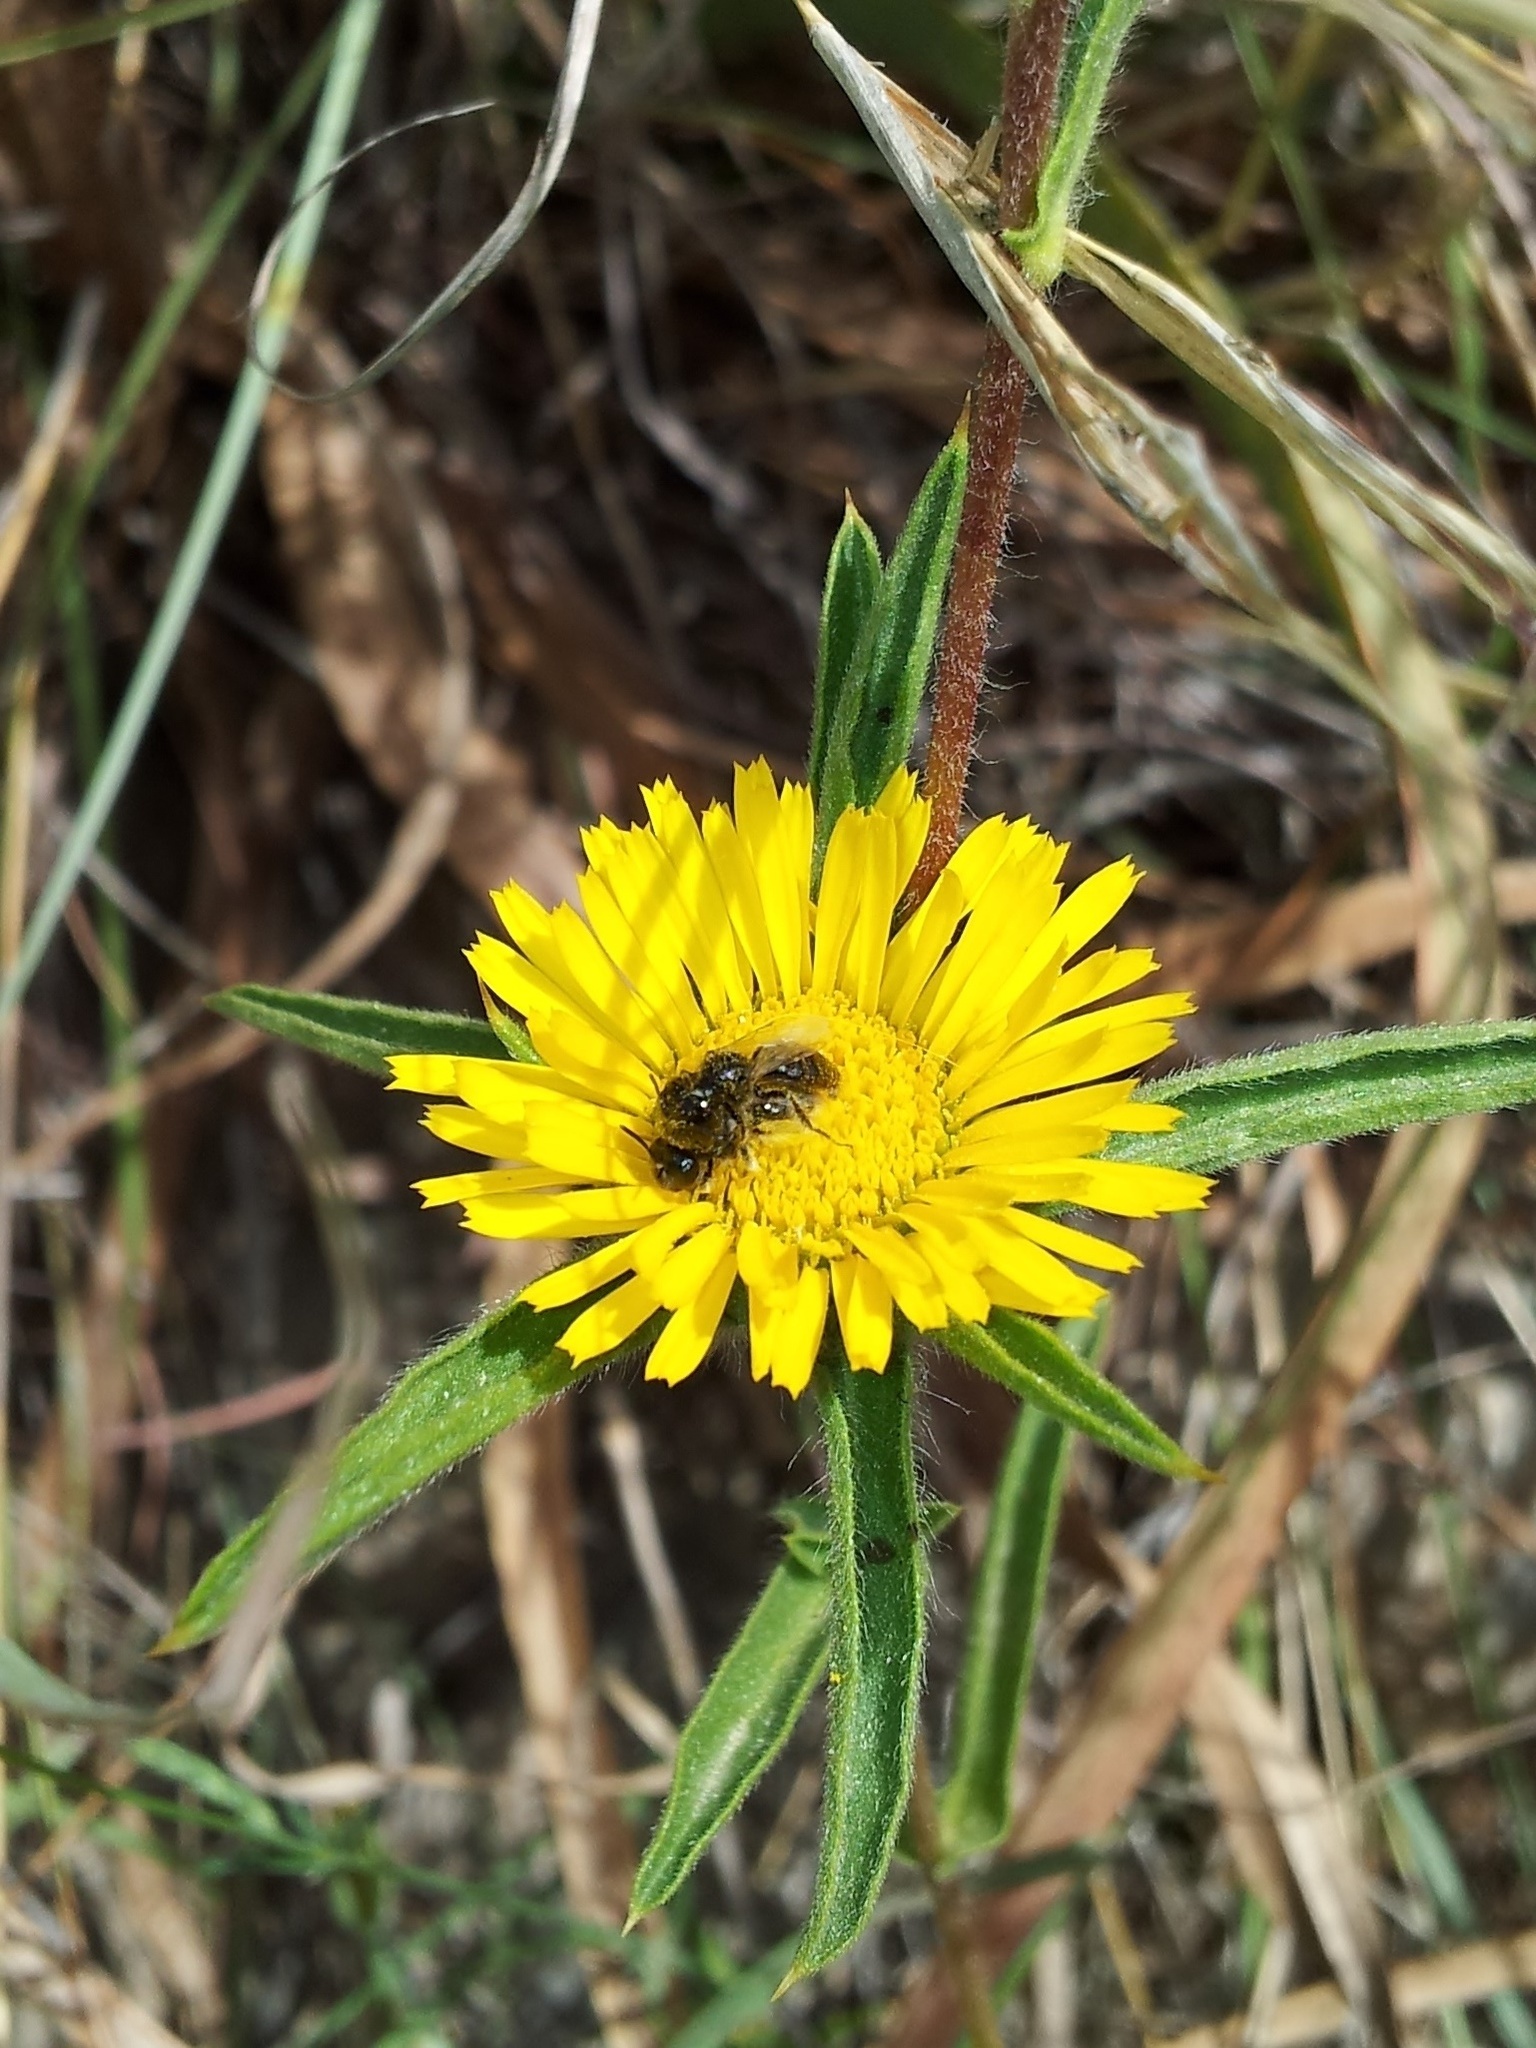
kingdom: Plantae
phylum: Tracheophyta
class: Magnoliopsida
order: Asterales
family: Asteraceae
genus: Pallenis
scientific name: Pallenis spinosa
